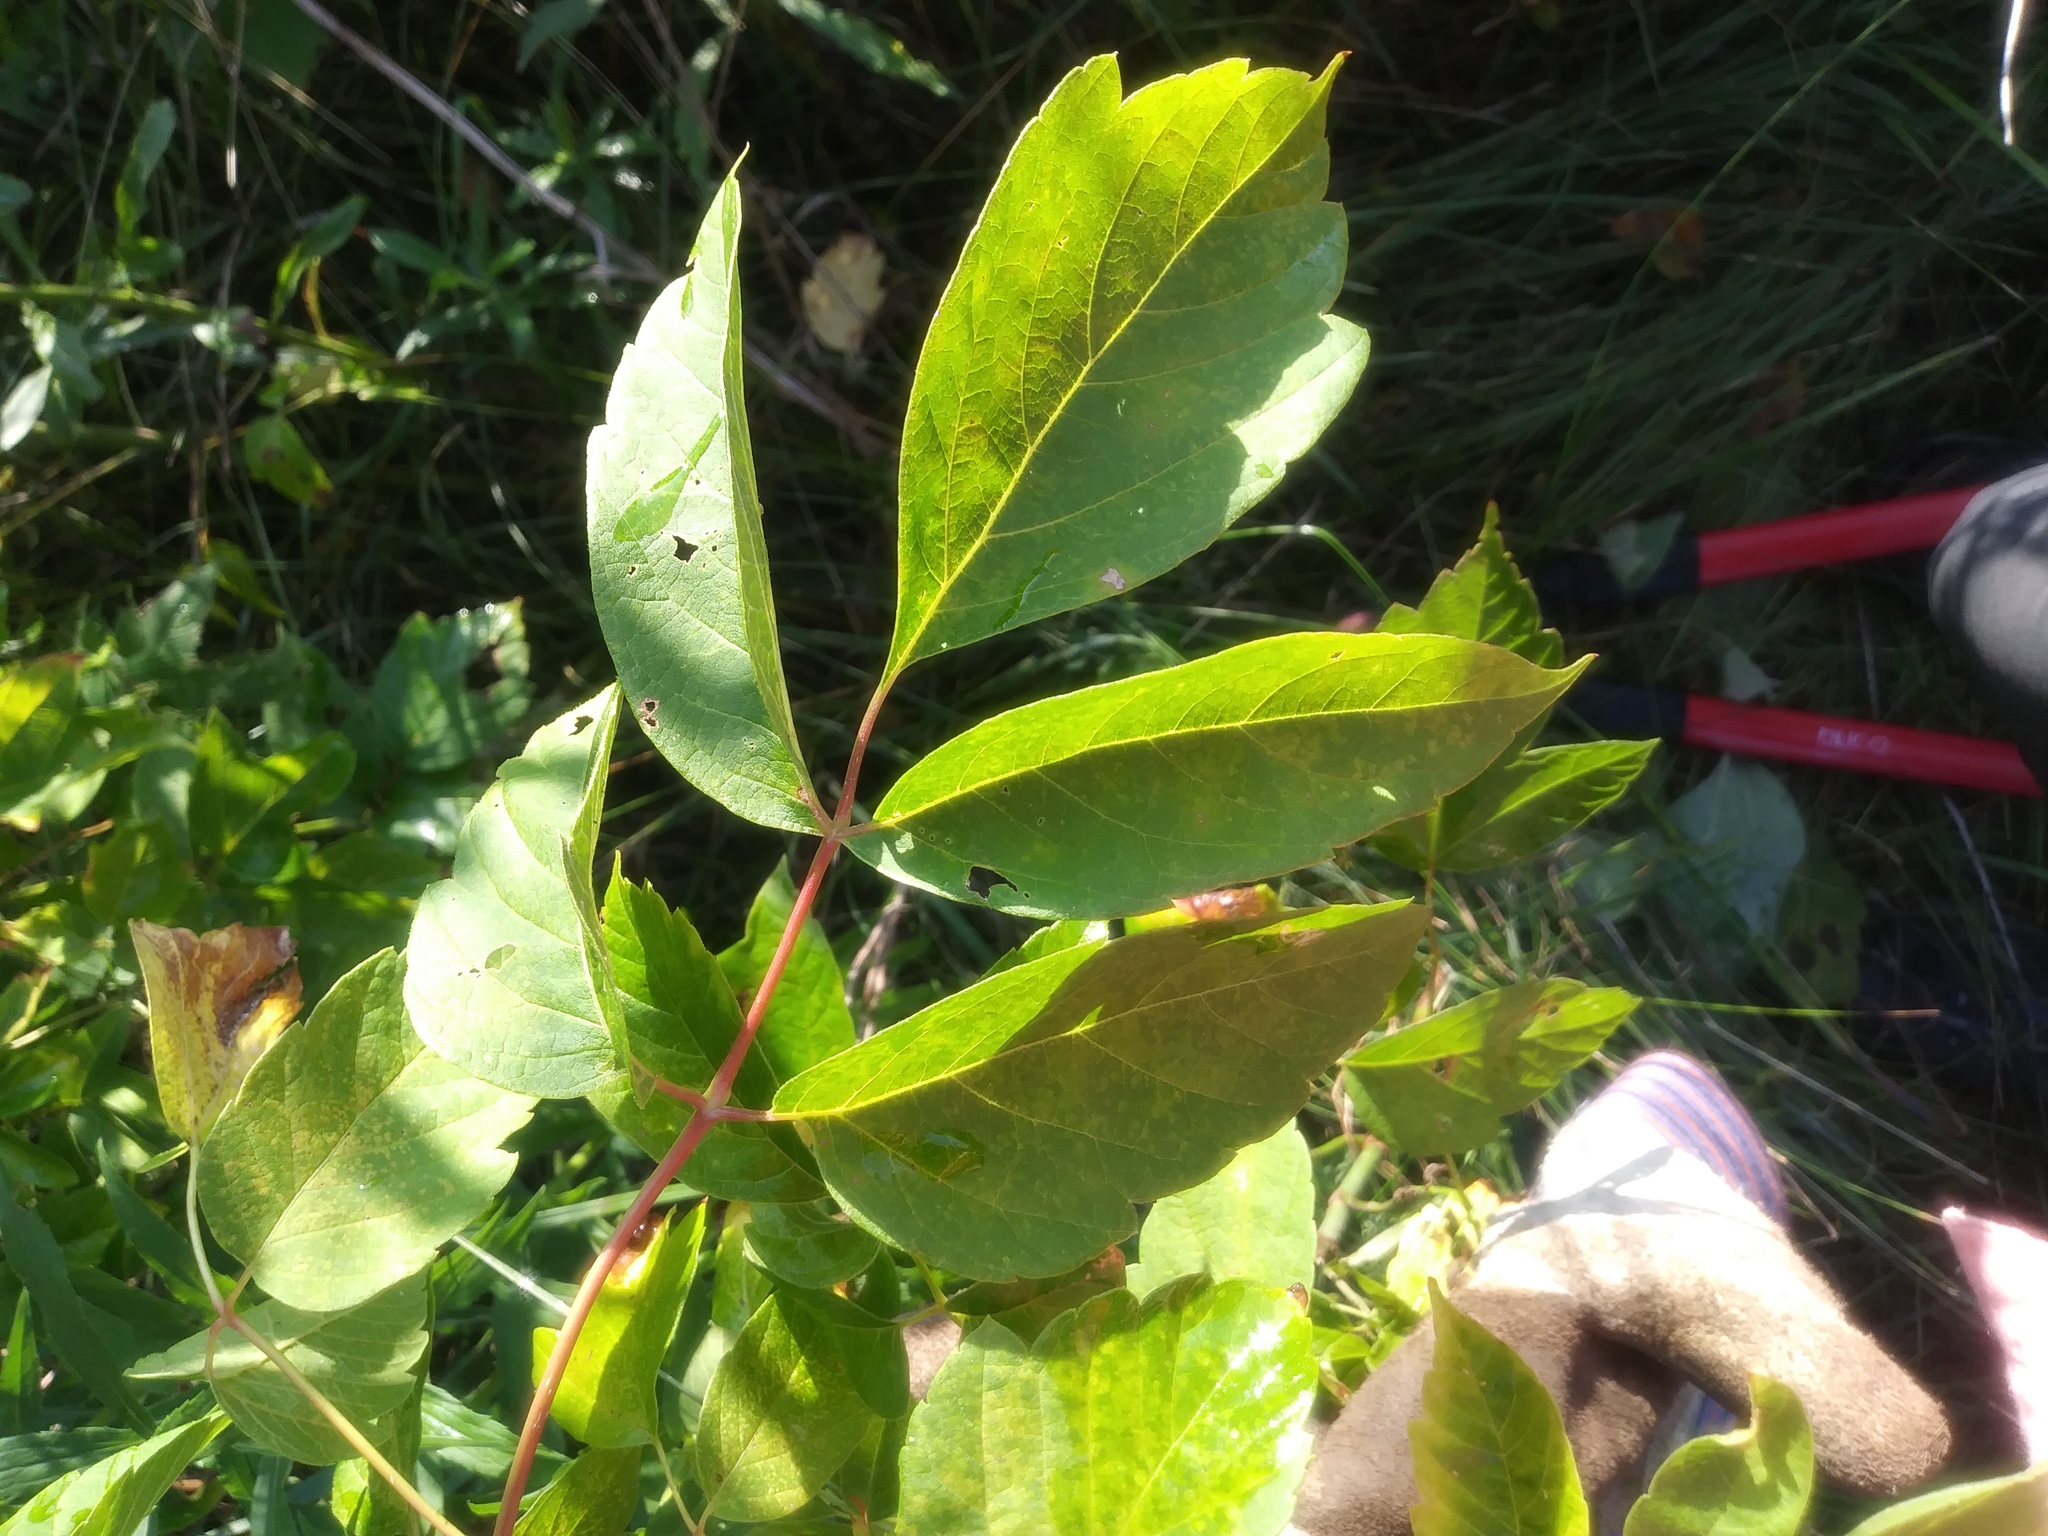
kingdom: Plantae
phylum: Tracheophyta
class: Magnoliopsida
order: Sapindales
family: Sapindaceae
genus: Acer
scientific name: Acer negundo
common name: Ashleaf maple
